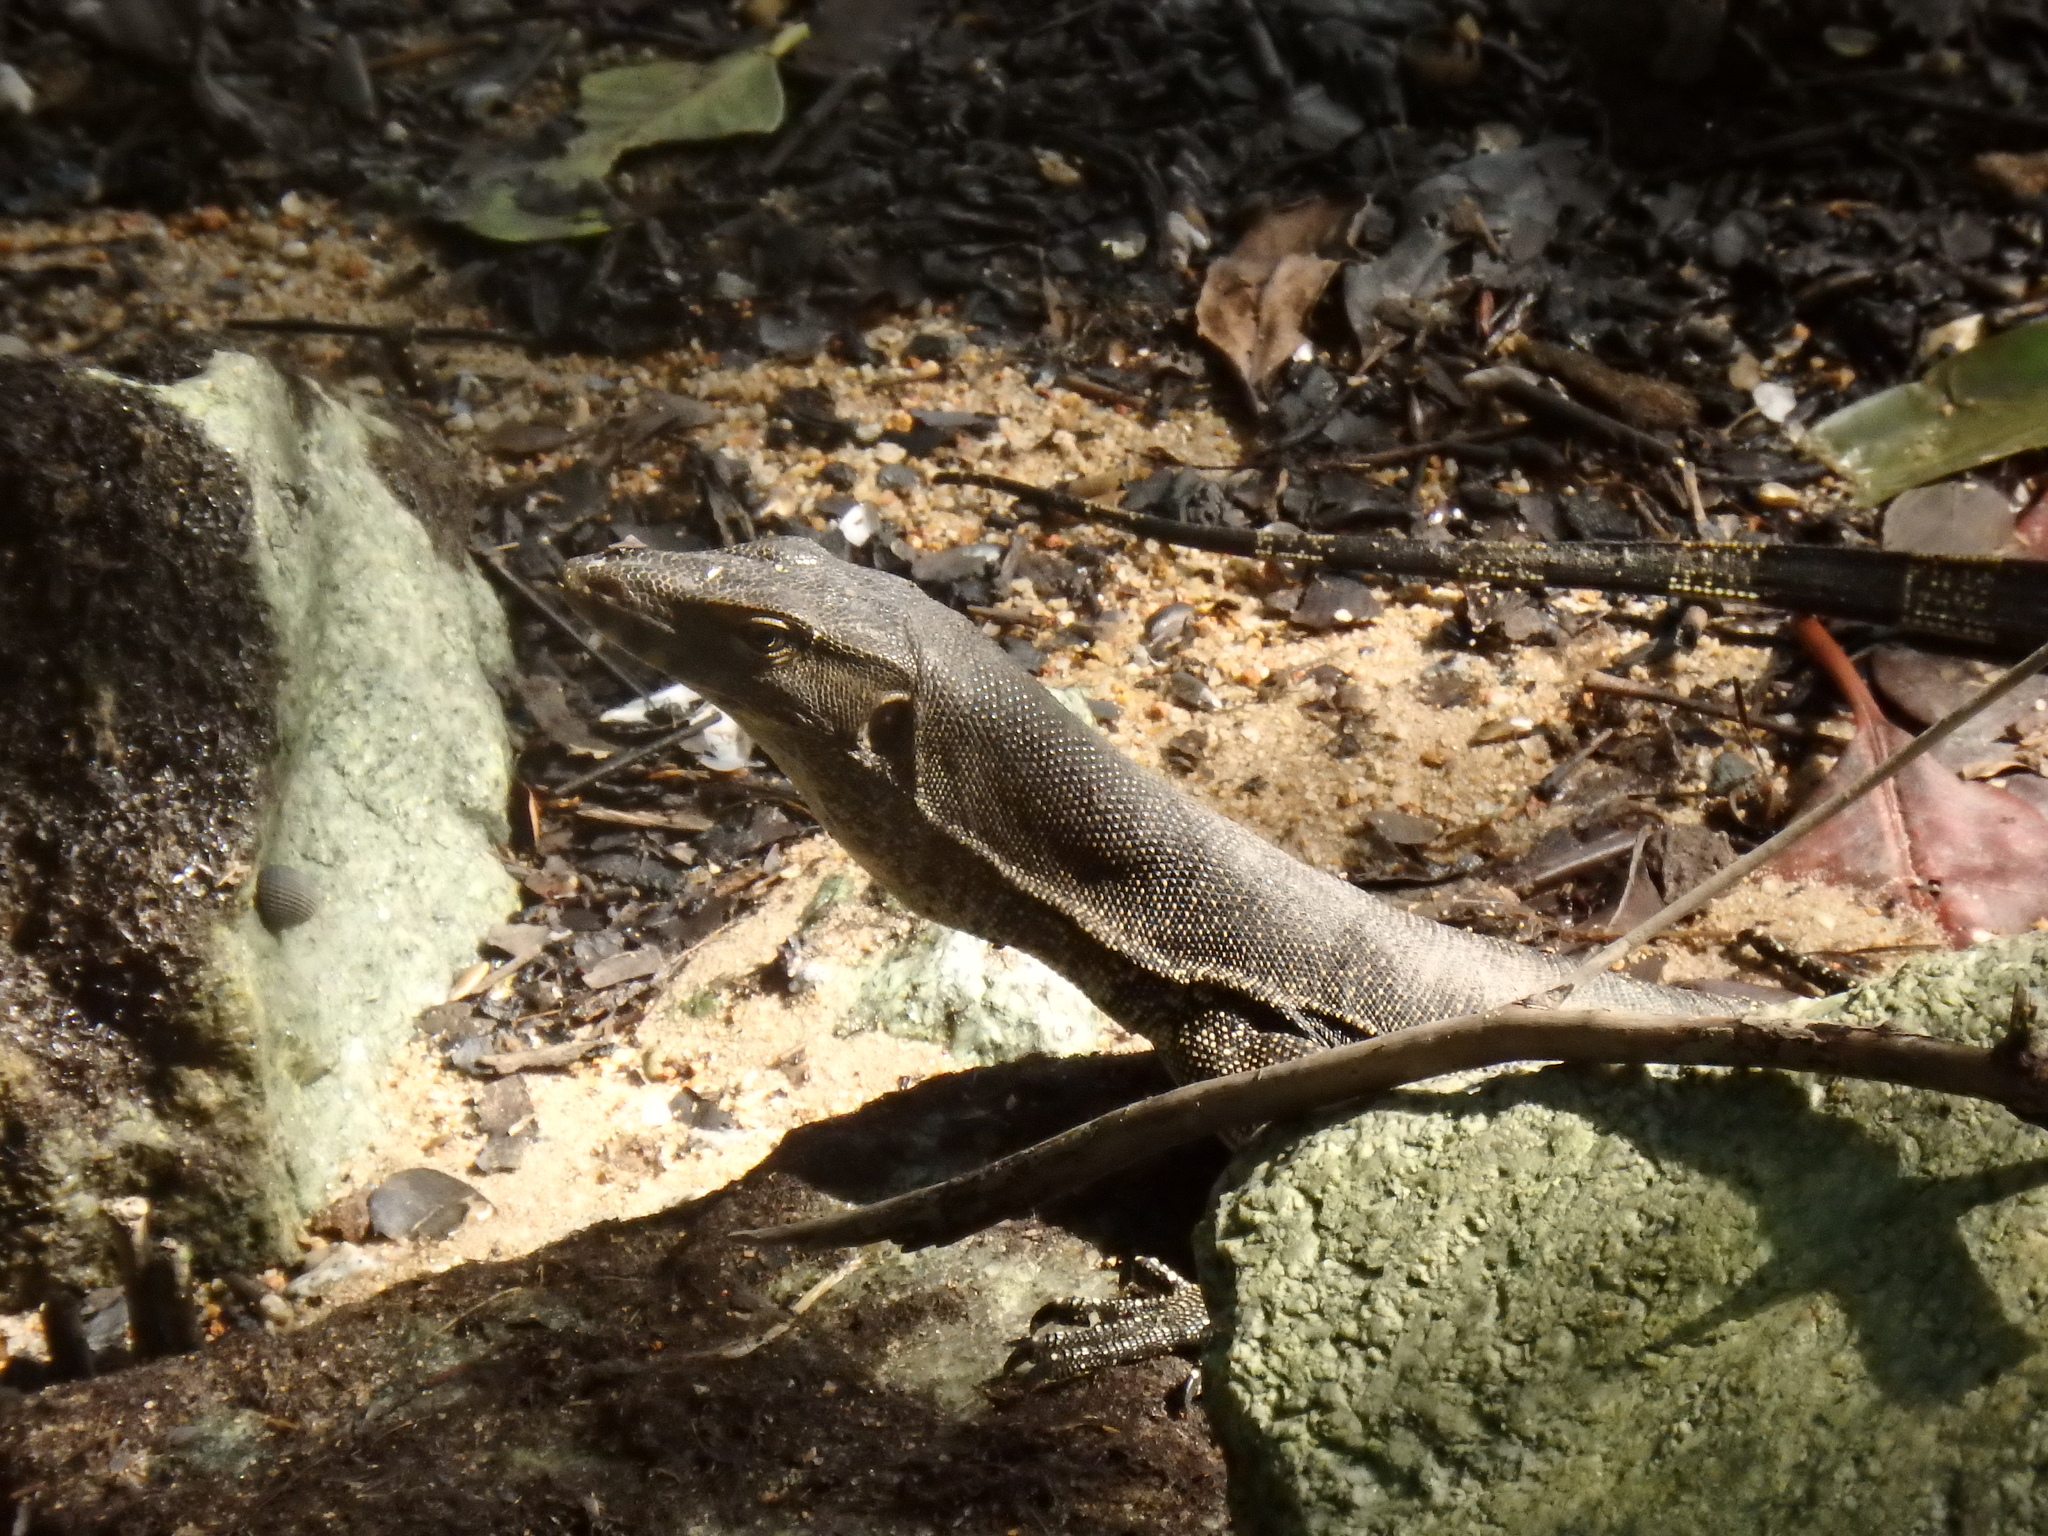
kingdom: Animalia
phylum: Chordata
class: Squamata
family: Varanidae
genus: Varanus
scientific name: Varanus salvator
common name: Common water monitor
